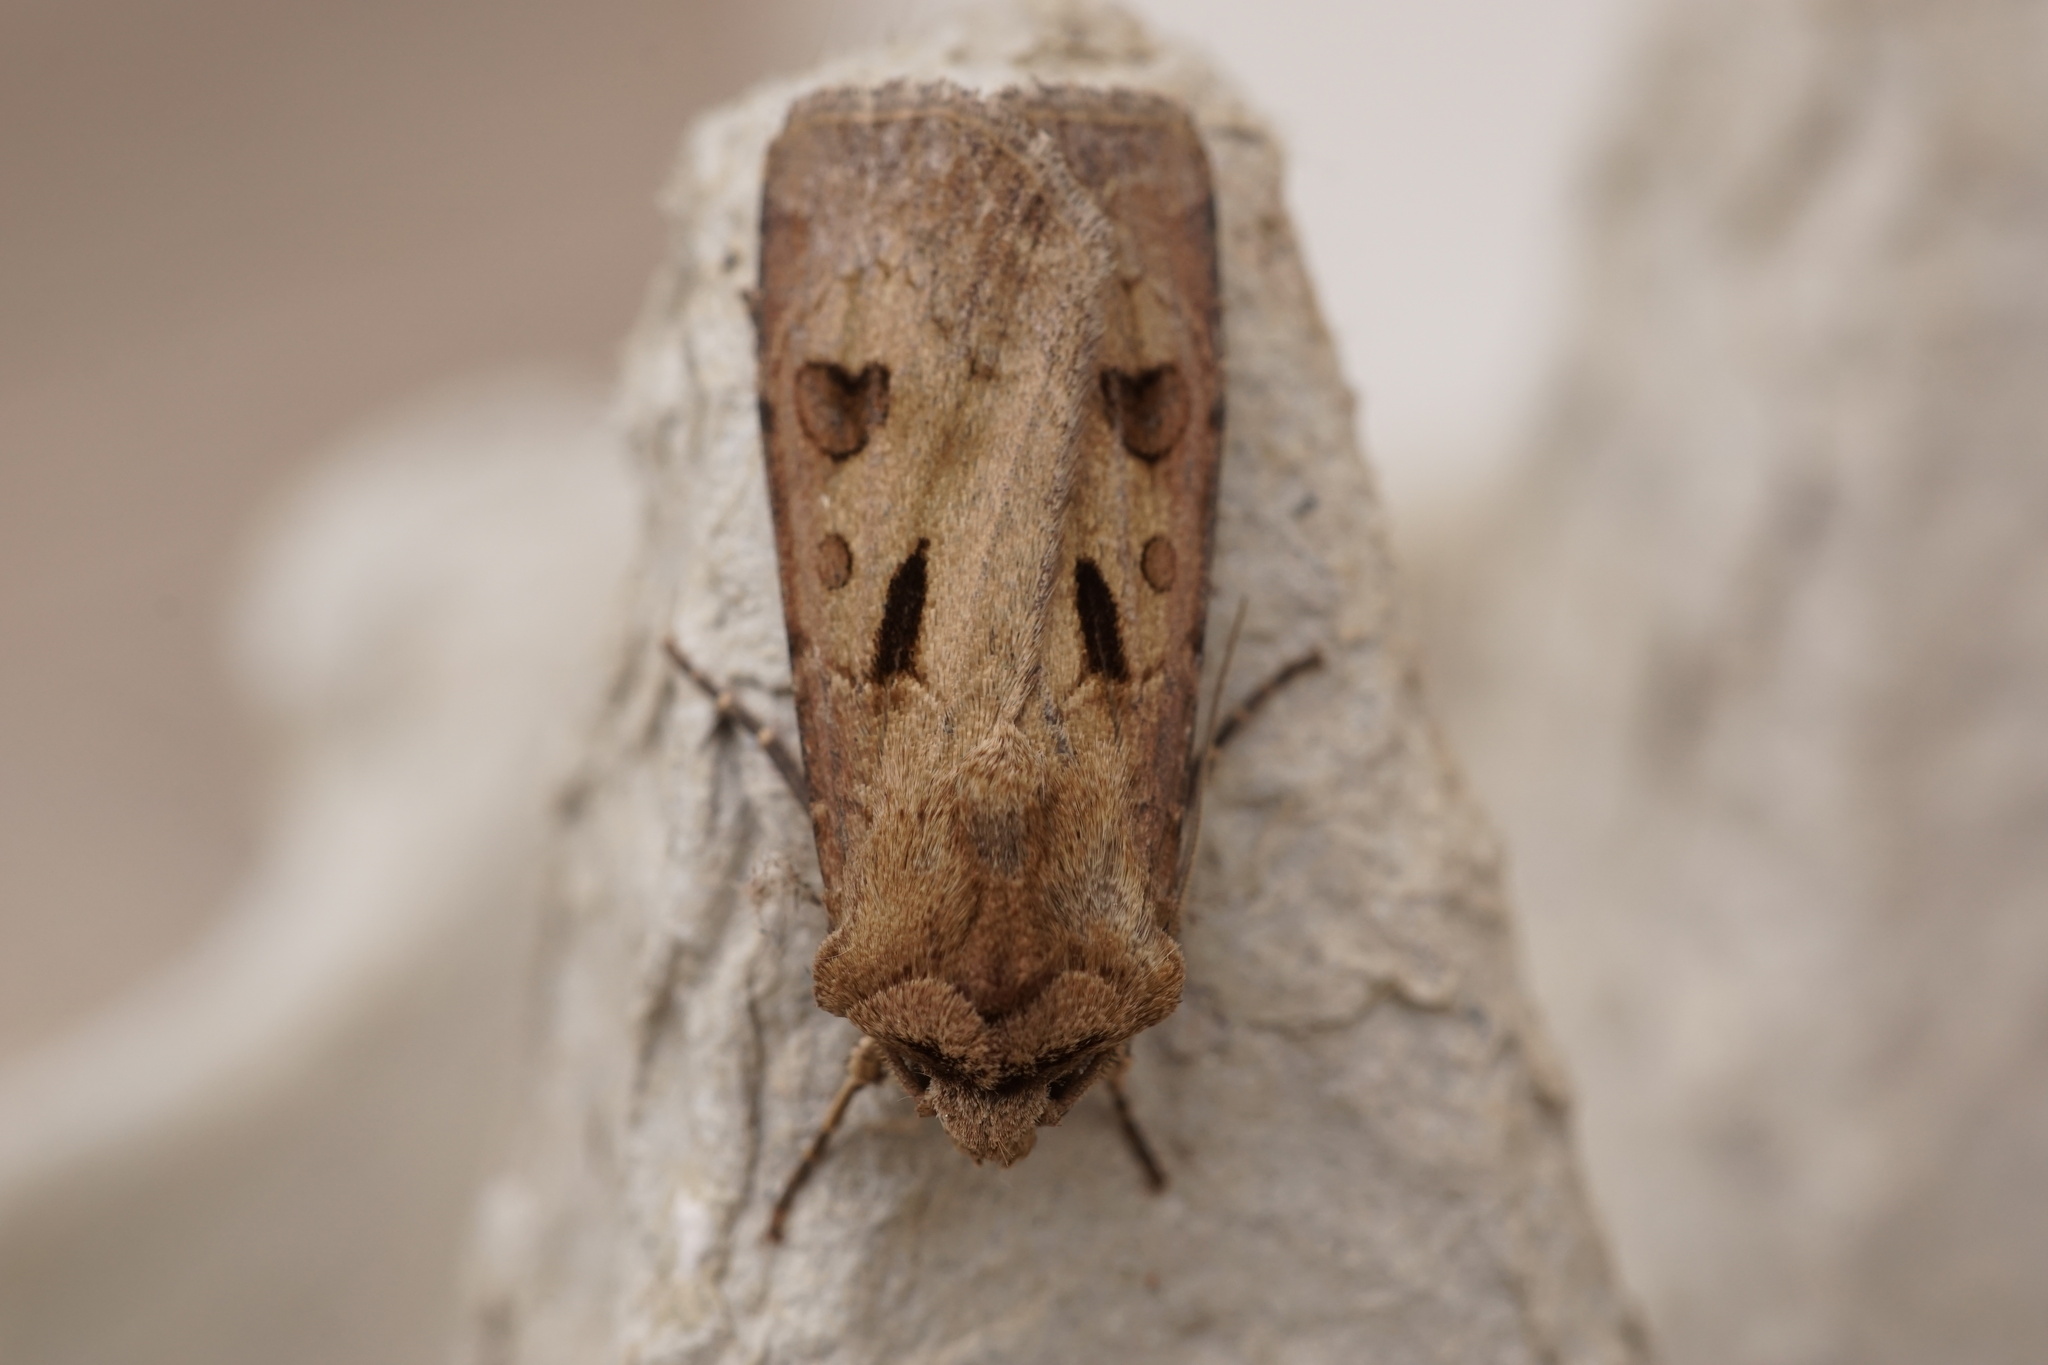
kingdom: Animalia
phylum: Arthropoda
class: Insecta
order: Lepidoptera
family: Noctuidae
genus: Agrotis
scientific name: Agrotis exclamationis
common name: Heart and dart
